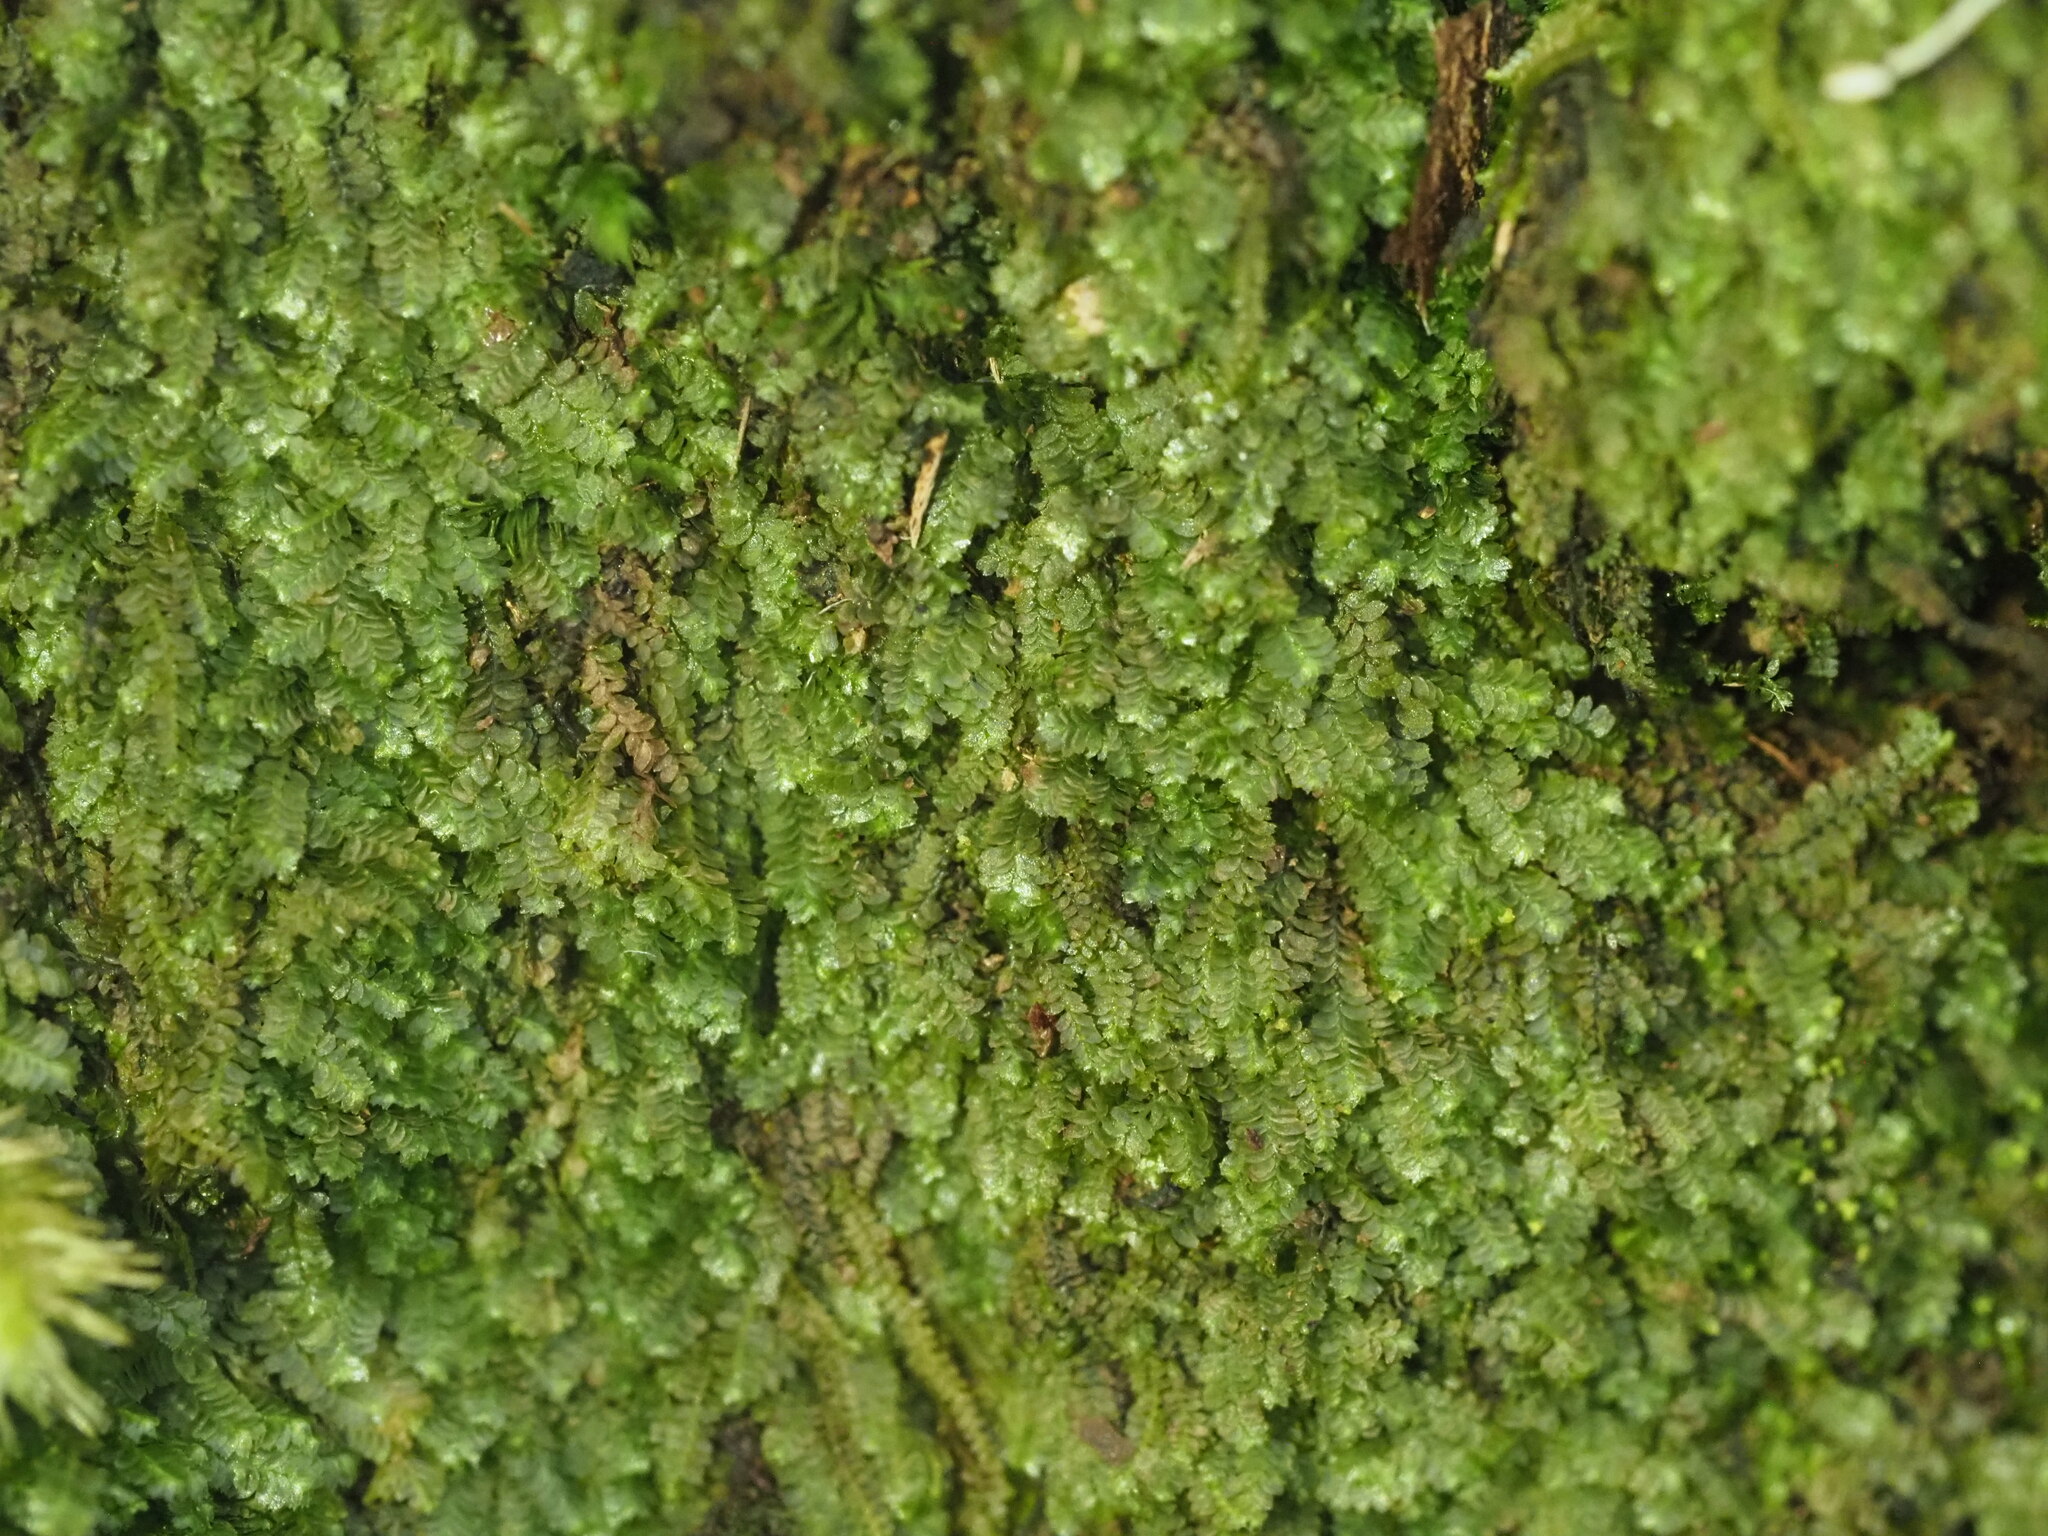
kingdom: Plantae
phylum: Marchantiophyta
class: Jungermanniopsida
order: Jungermanniales
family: Lepidoziaceae
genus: Bazzania
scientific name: Bazzania brighamii
